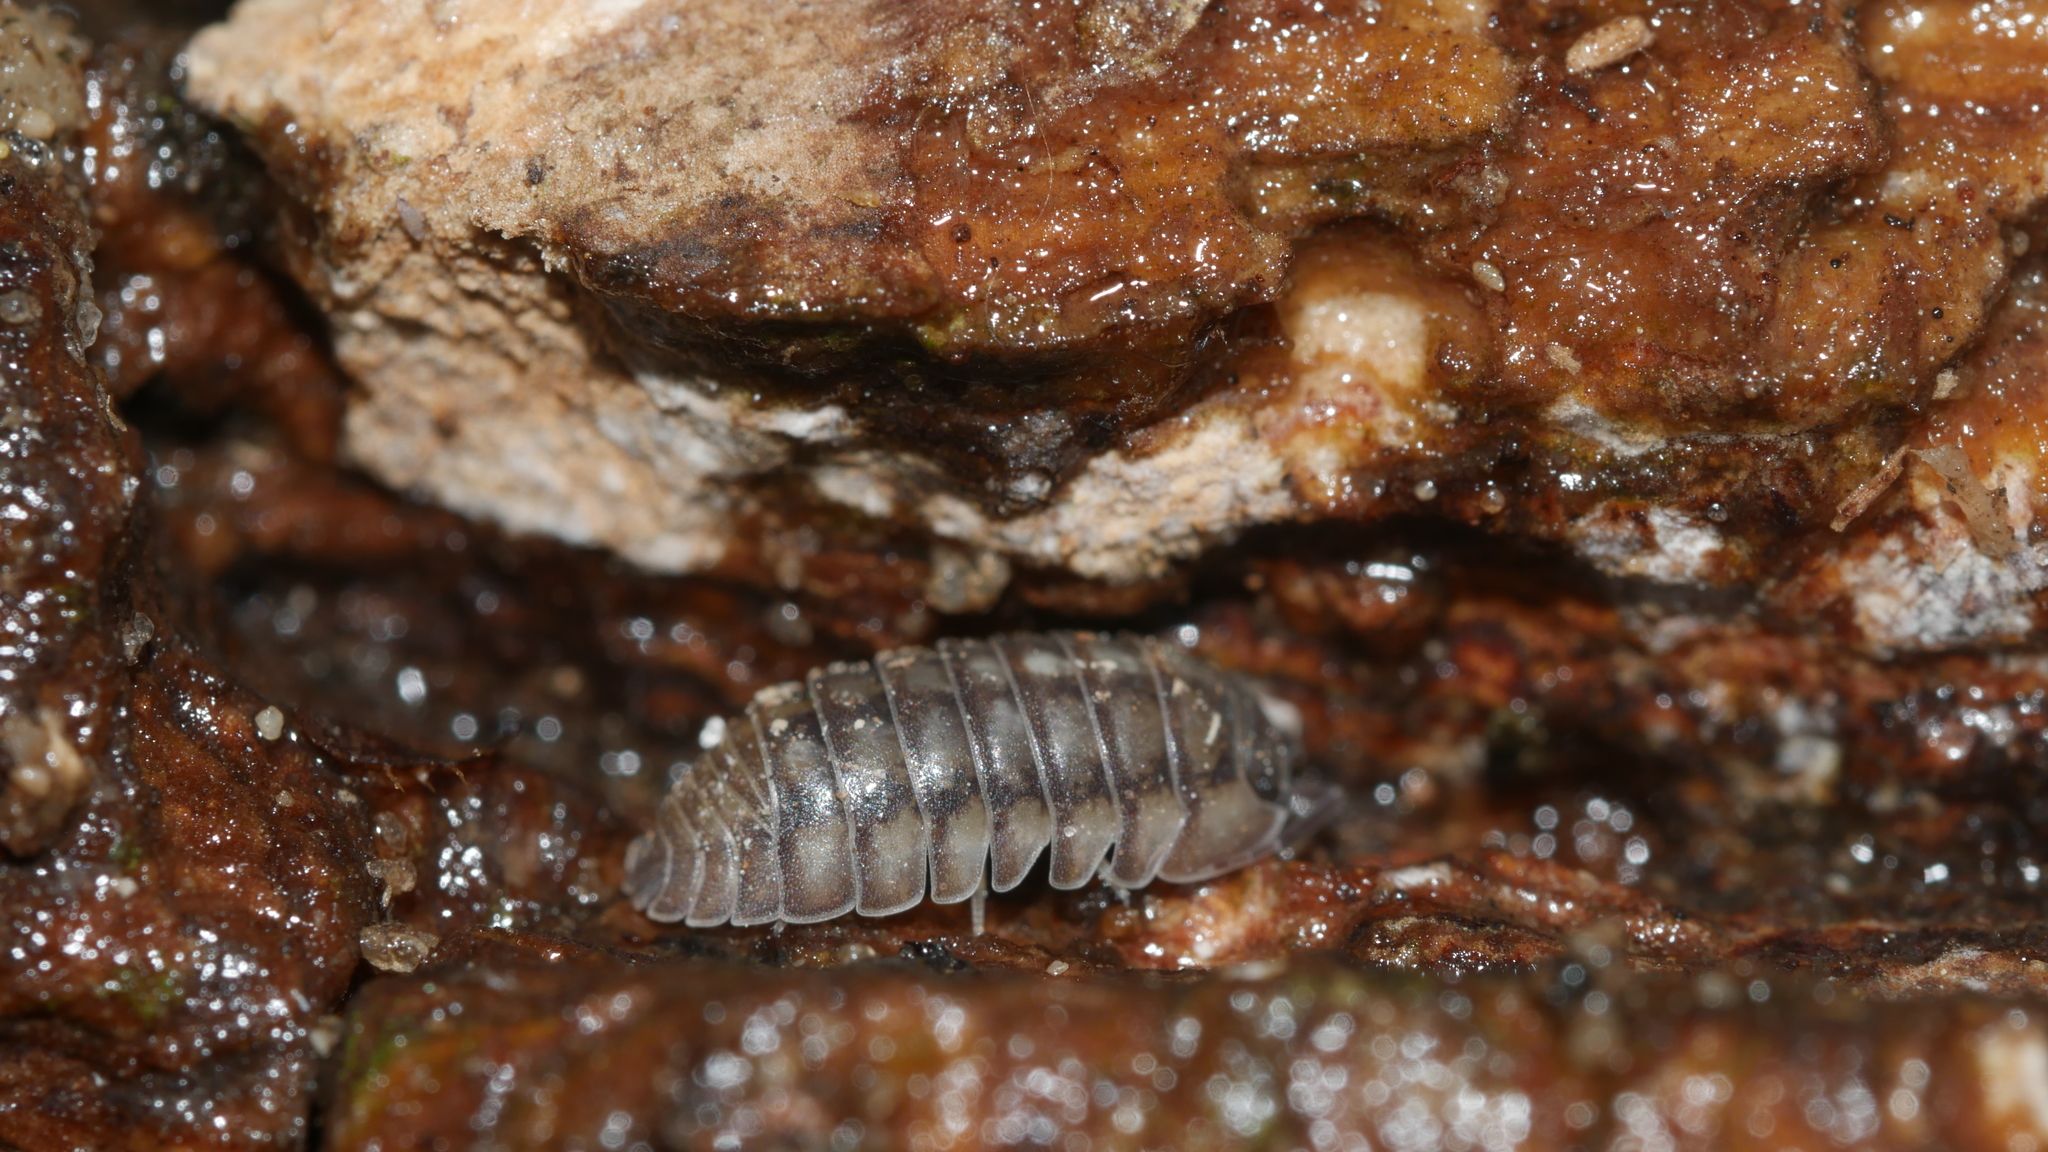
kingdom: Animalia
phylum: Arthropoda
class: Malacostraca
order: Isopoda
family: Armadillidiidae
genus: Armadillidium
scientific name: Armadillidium nasatum
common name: Isopod
